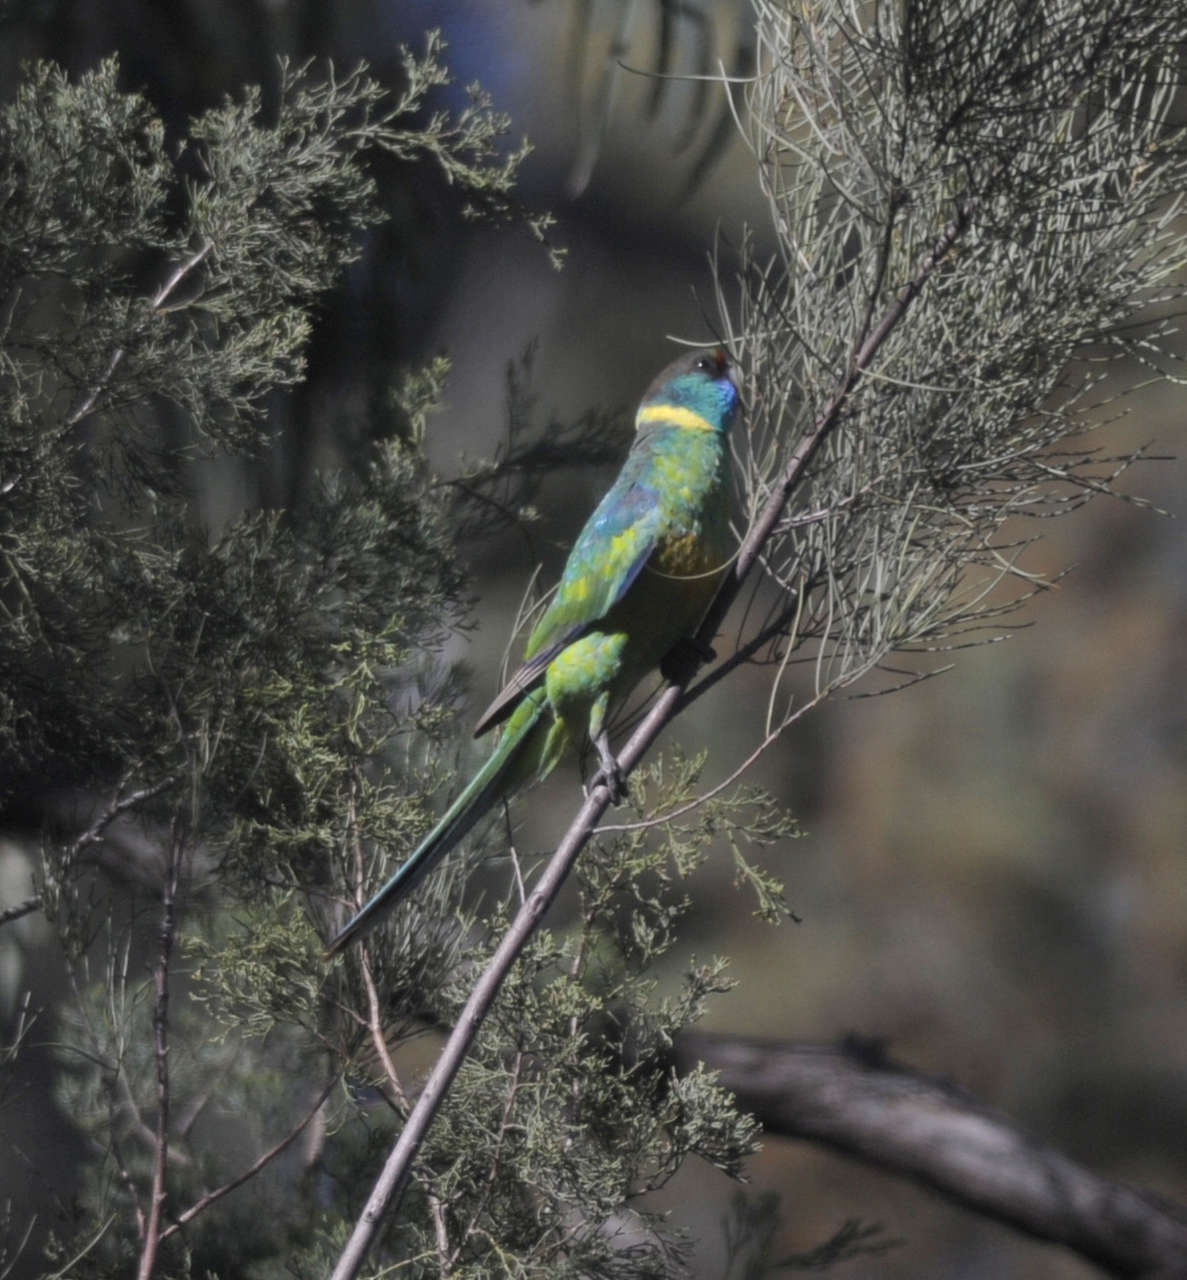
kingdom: Animalia
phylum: Chordata
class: Aves
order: Psittaciformes
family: Psittacidae
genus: Barnardius
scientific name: Barnardius zonarius
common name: Australian ringneck
